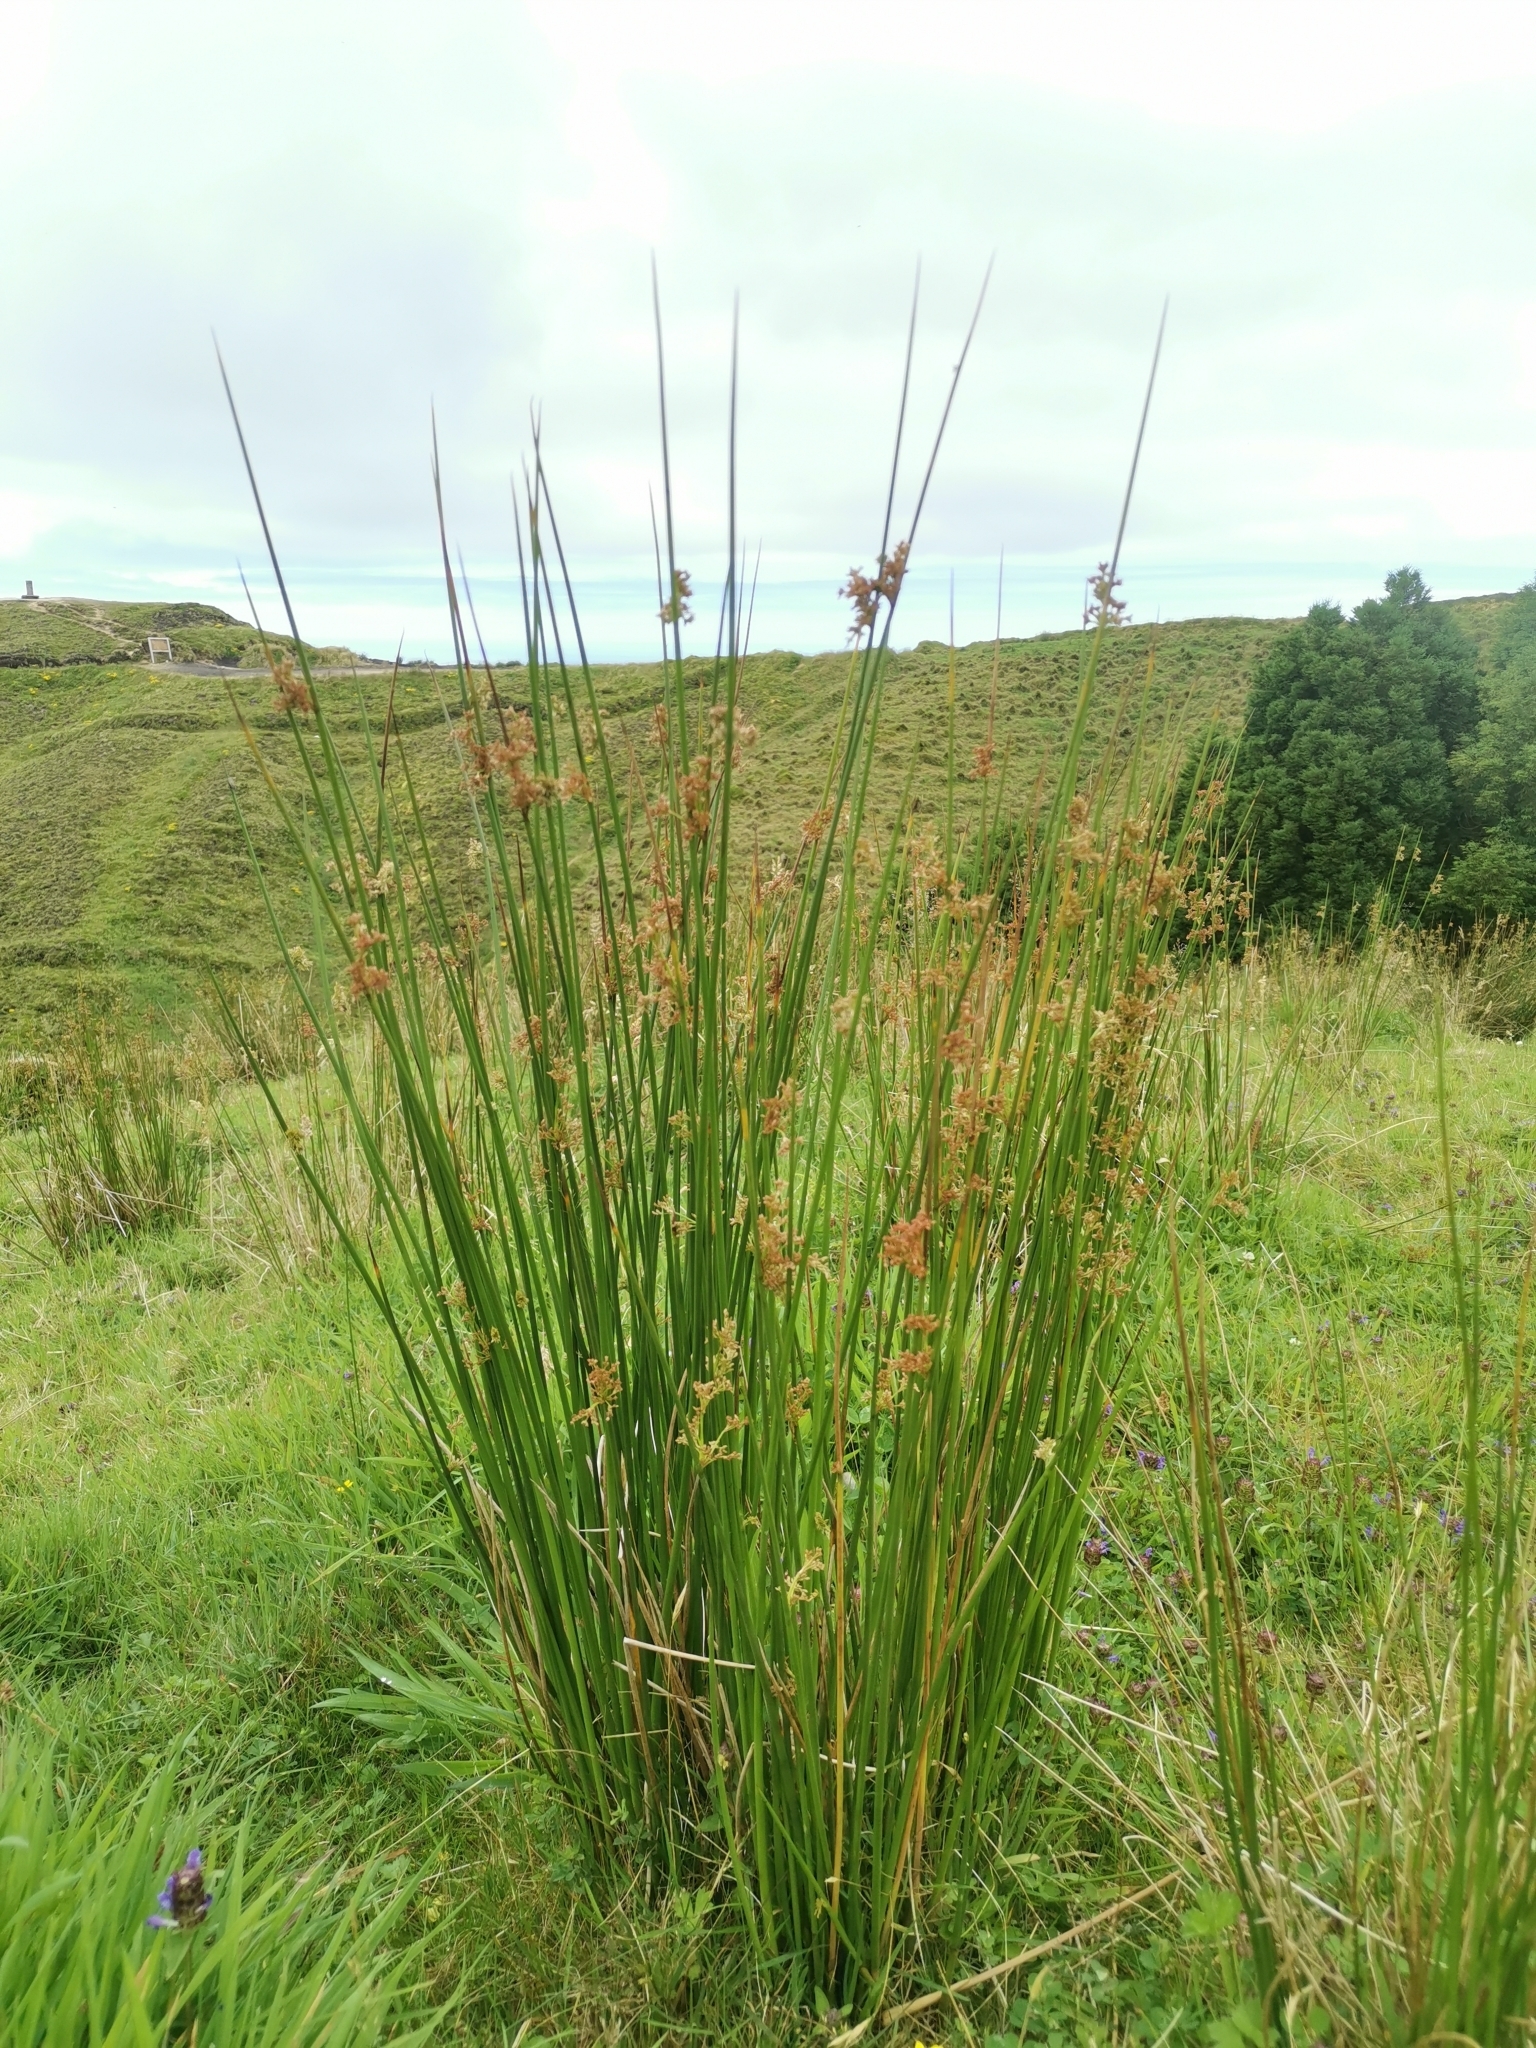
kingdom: Plantae
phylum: Tracheophyta
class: Liliopsida
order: Poales
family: Juncaceae
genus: Juncus
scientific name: Juncus effusus
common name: Soft rush
